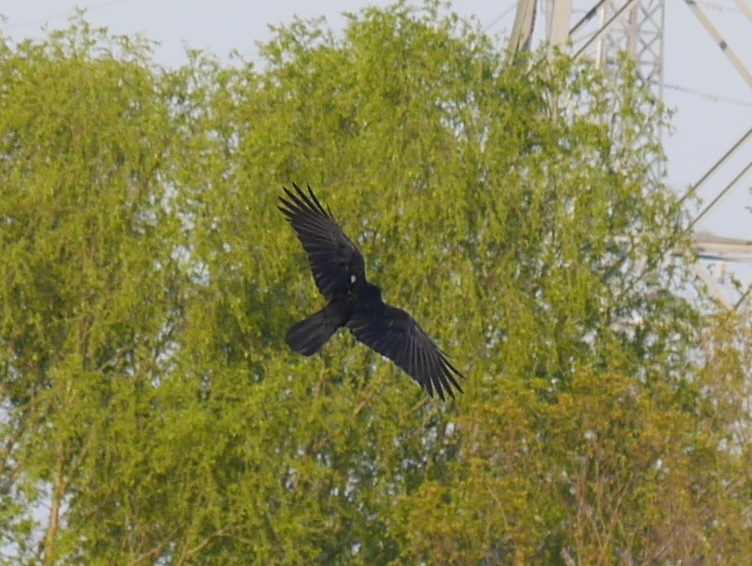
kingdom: Animalia
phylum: Chordata
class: Aves
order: Passeriformes
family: Corvidae
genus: Corvus
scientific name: Corvus macrorhynchos
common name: Large-billed crow
